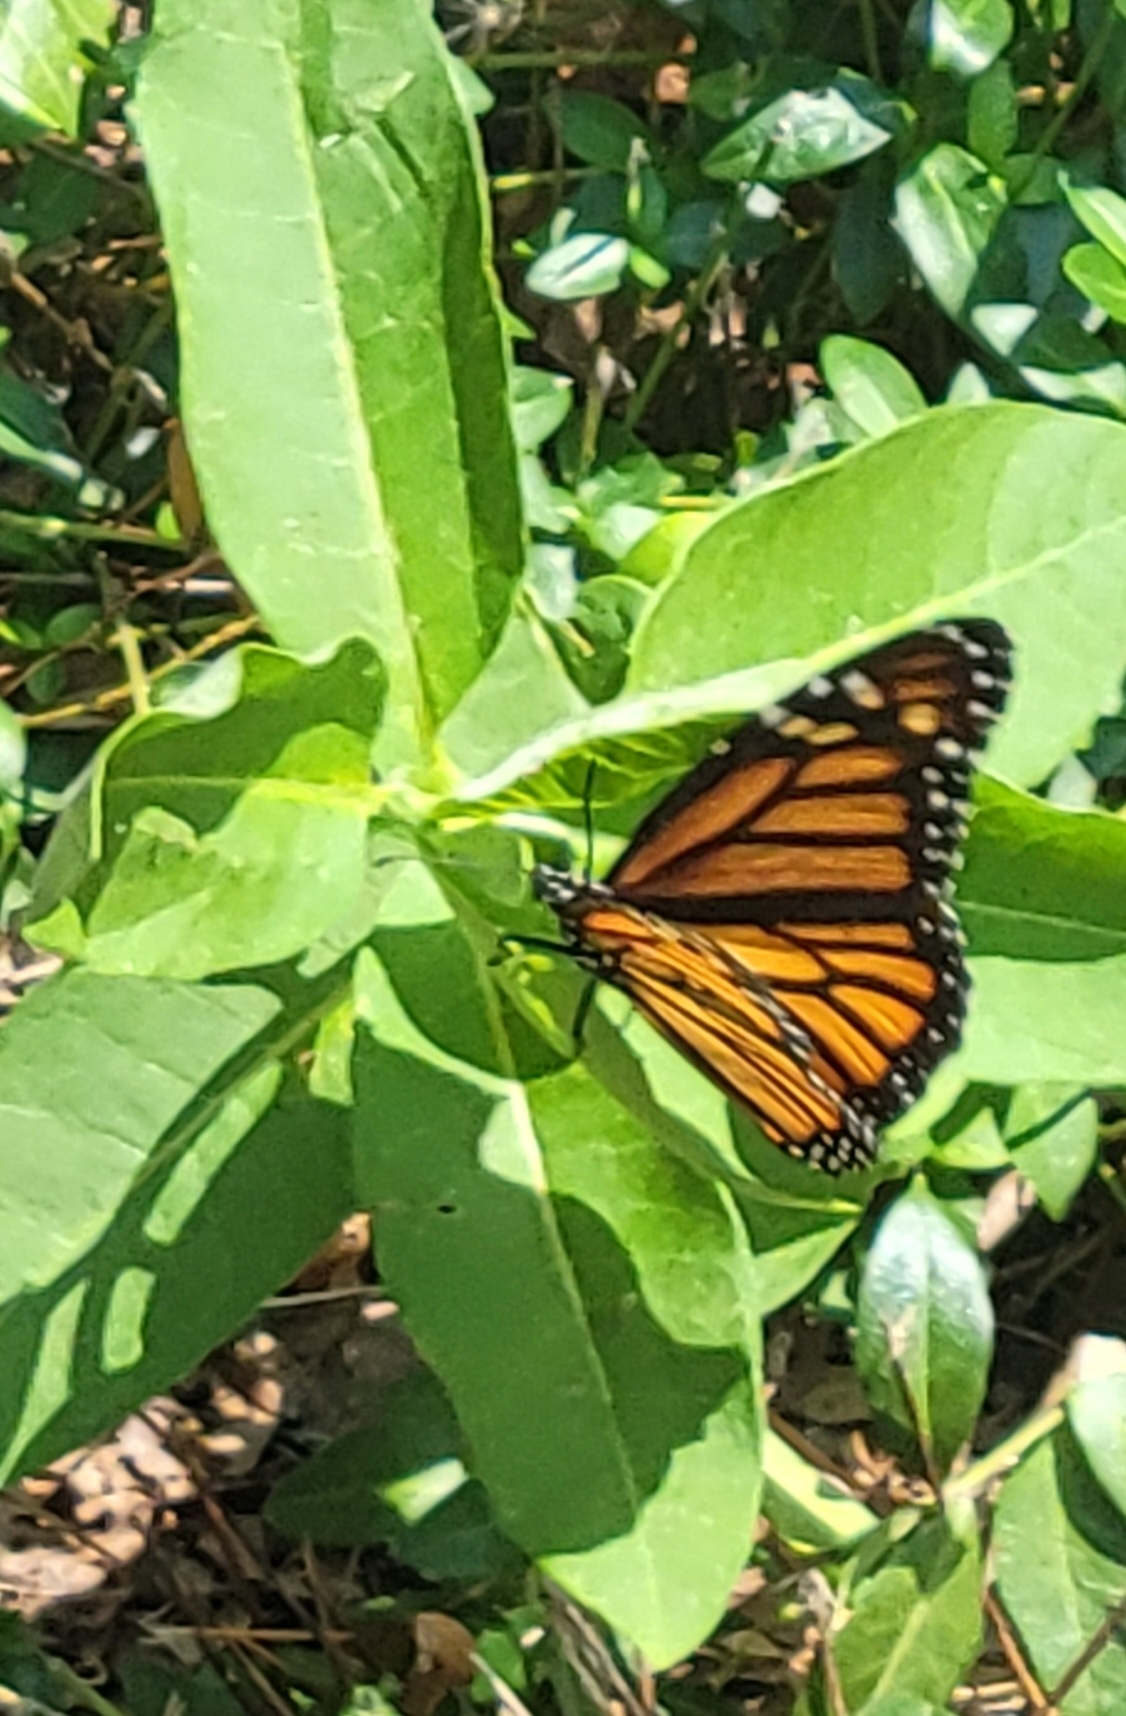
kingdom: Animalia
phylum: Arthropoda
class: Insecta
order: Lepidoptera
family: Nymphalidae
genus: Danaus
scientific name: Danaus plexippus
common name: Monarch
